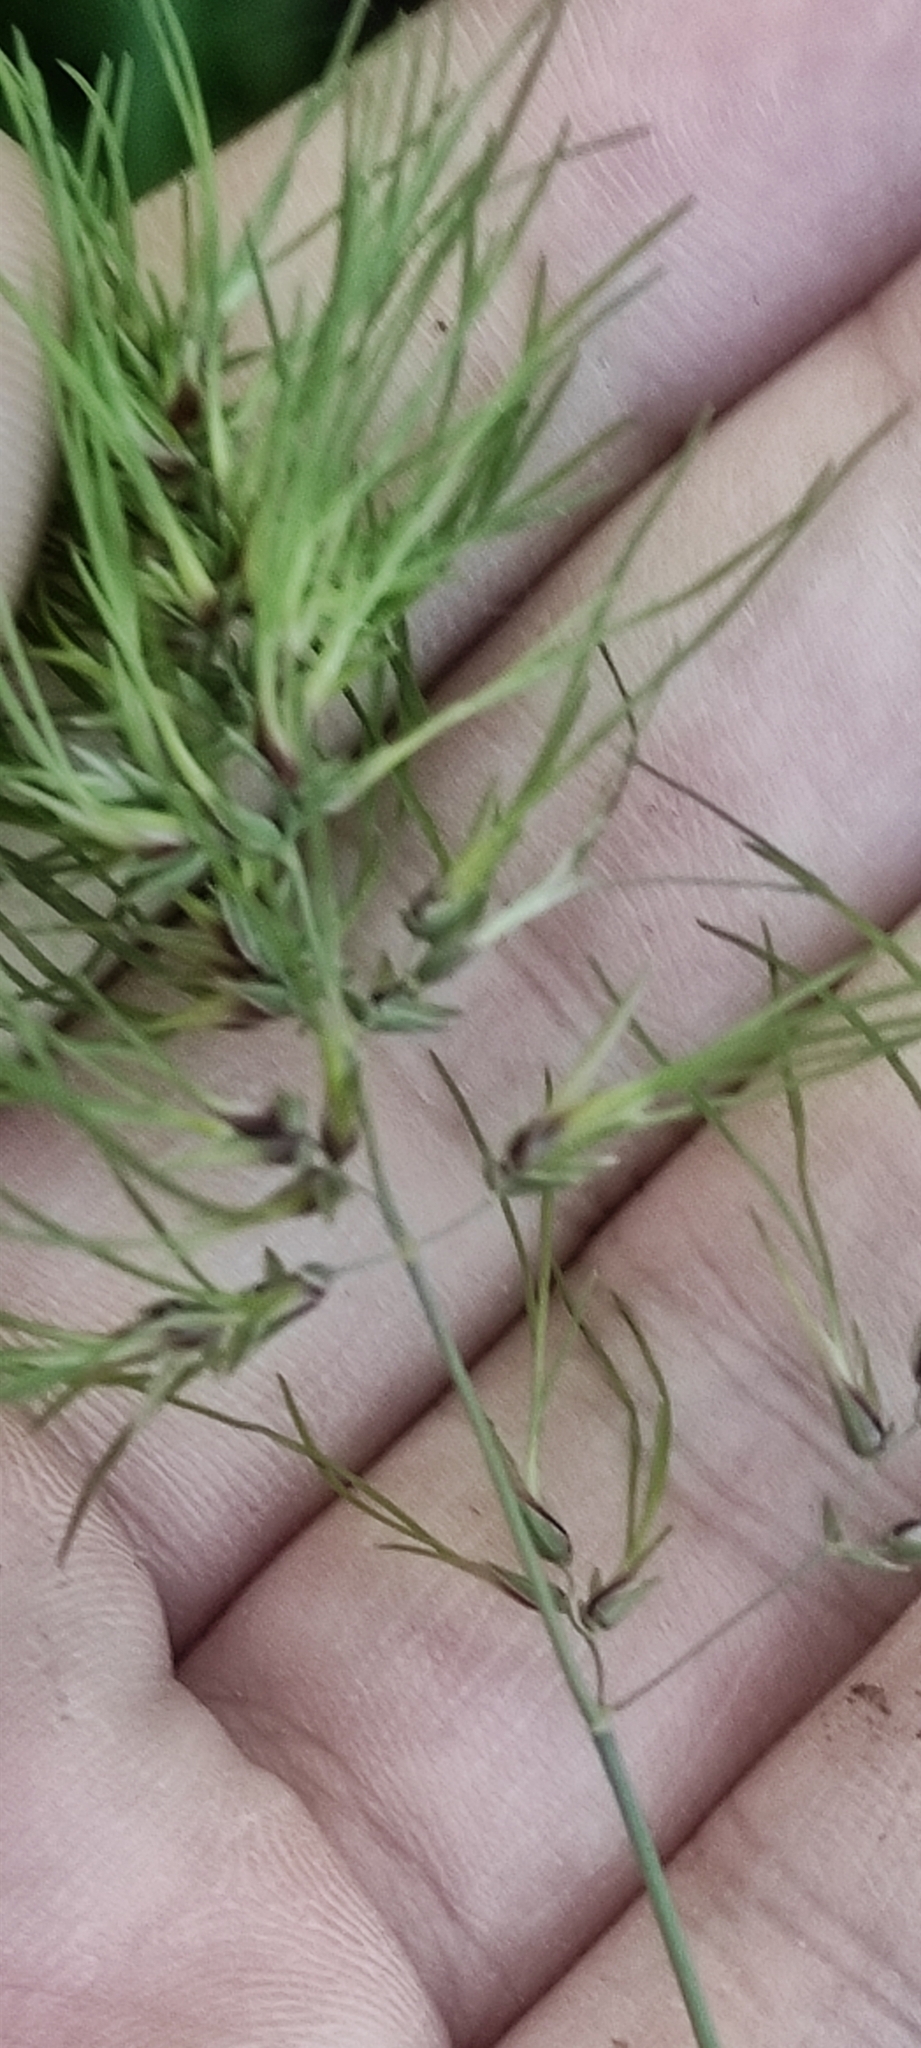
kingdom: Plantae
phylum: Tracheophyta
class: Liliopsida
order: Poales
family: Poaceae
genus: Poa
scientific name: Poa bulbosa
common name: Bulbous bluegrass
